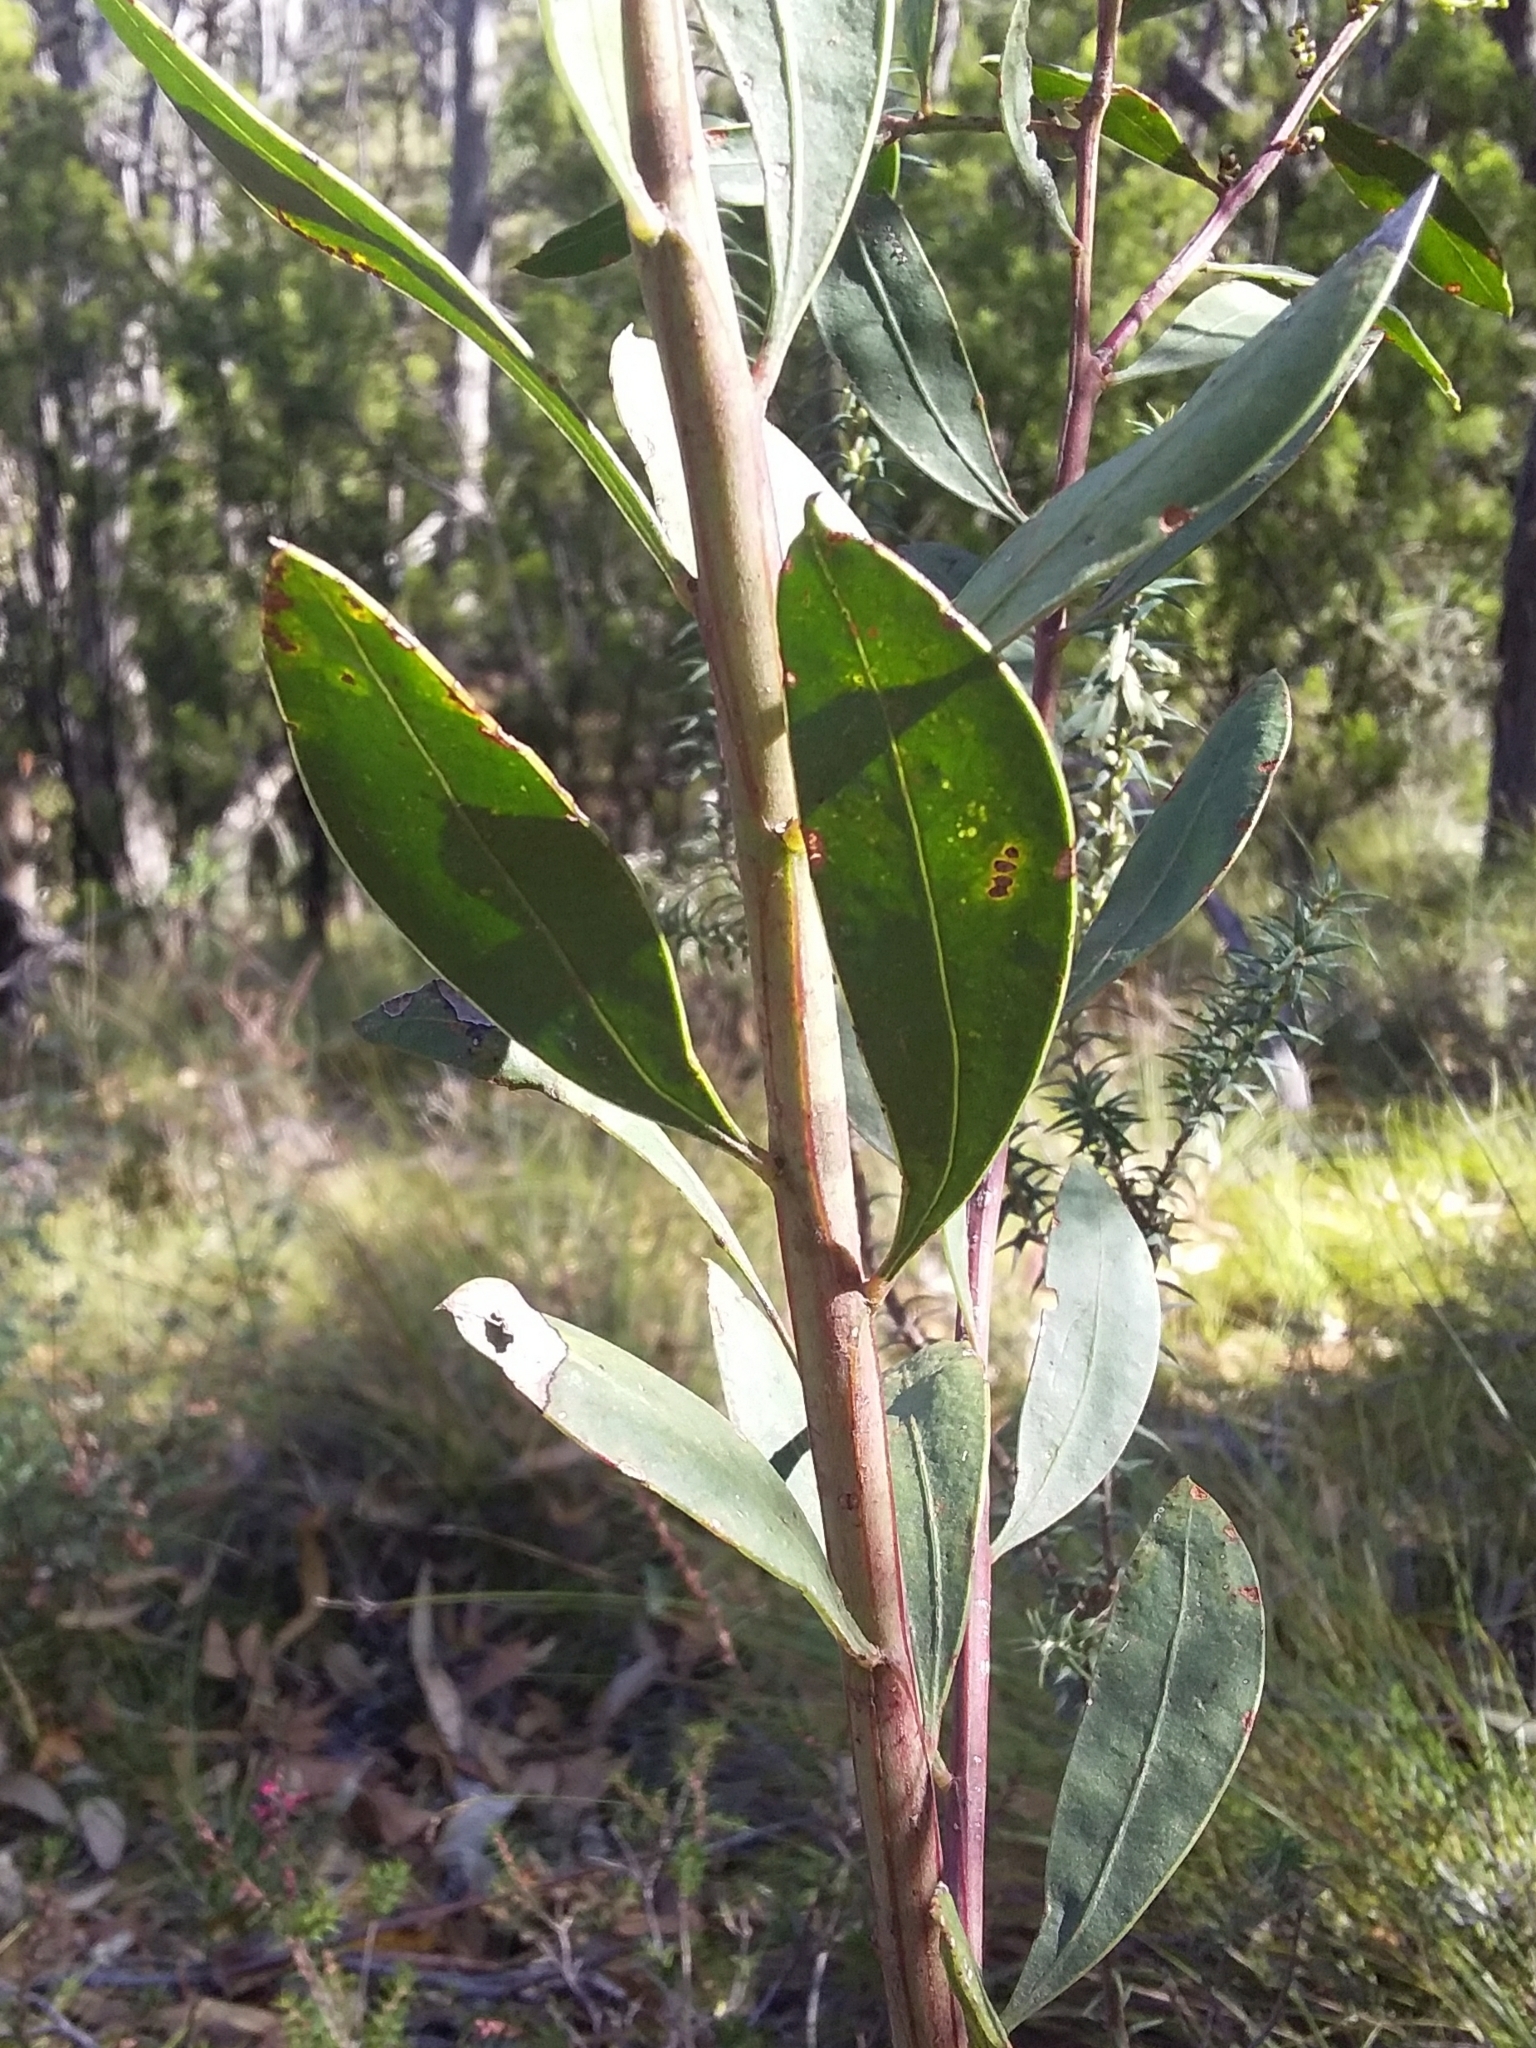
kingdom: Plantae
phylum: Tracheophyta
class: Magnoliopsida
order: Fabales
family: Fabaceae
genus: Acacia
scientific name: Acacia myrtifolia
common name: Myrtle wattle
